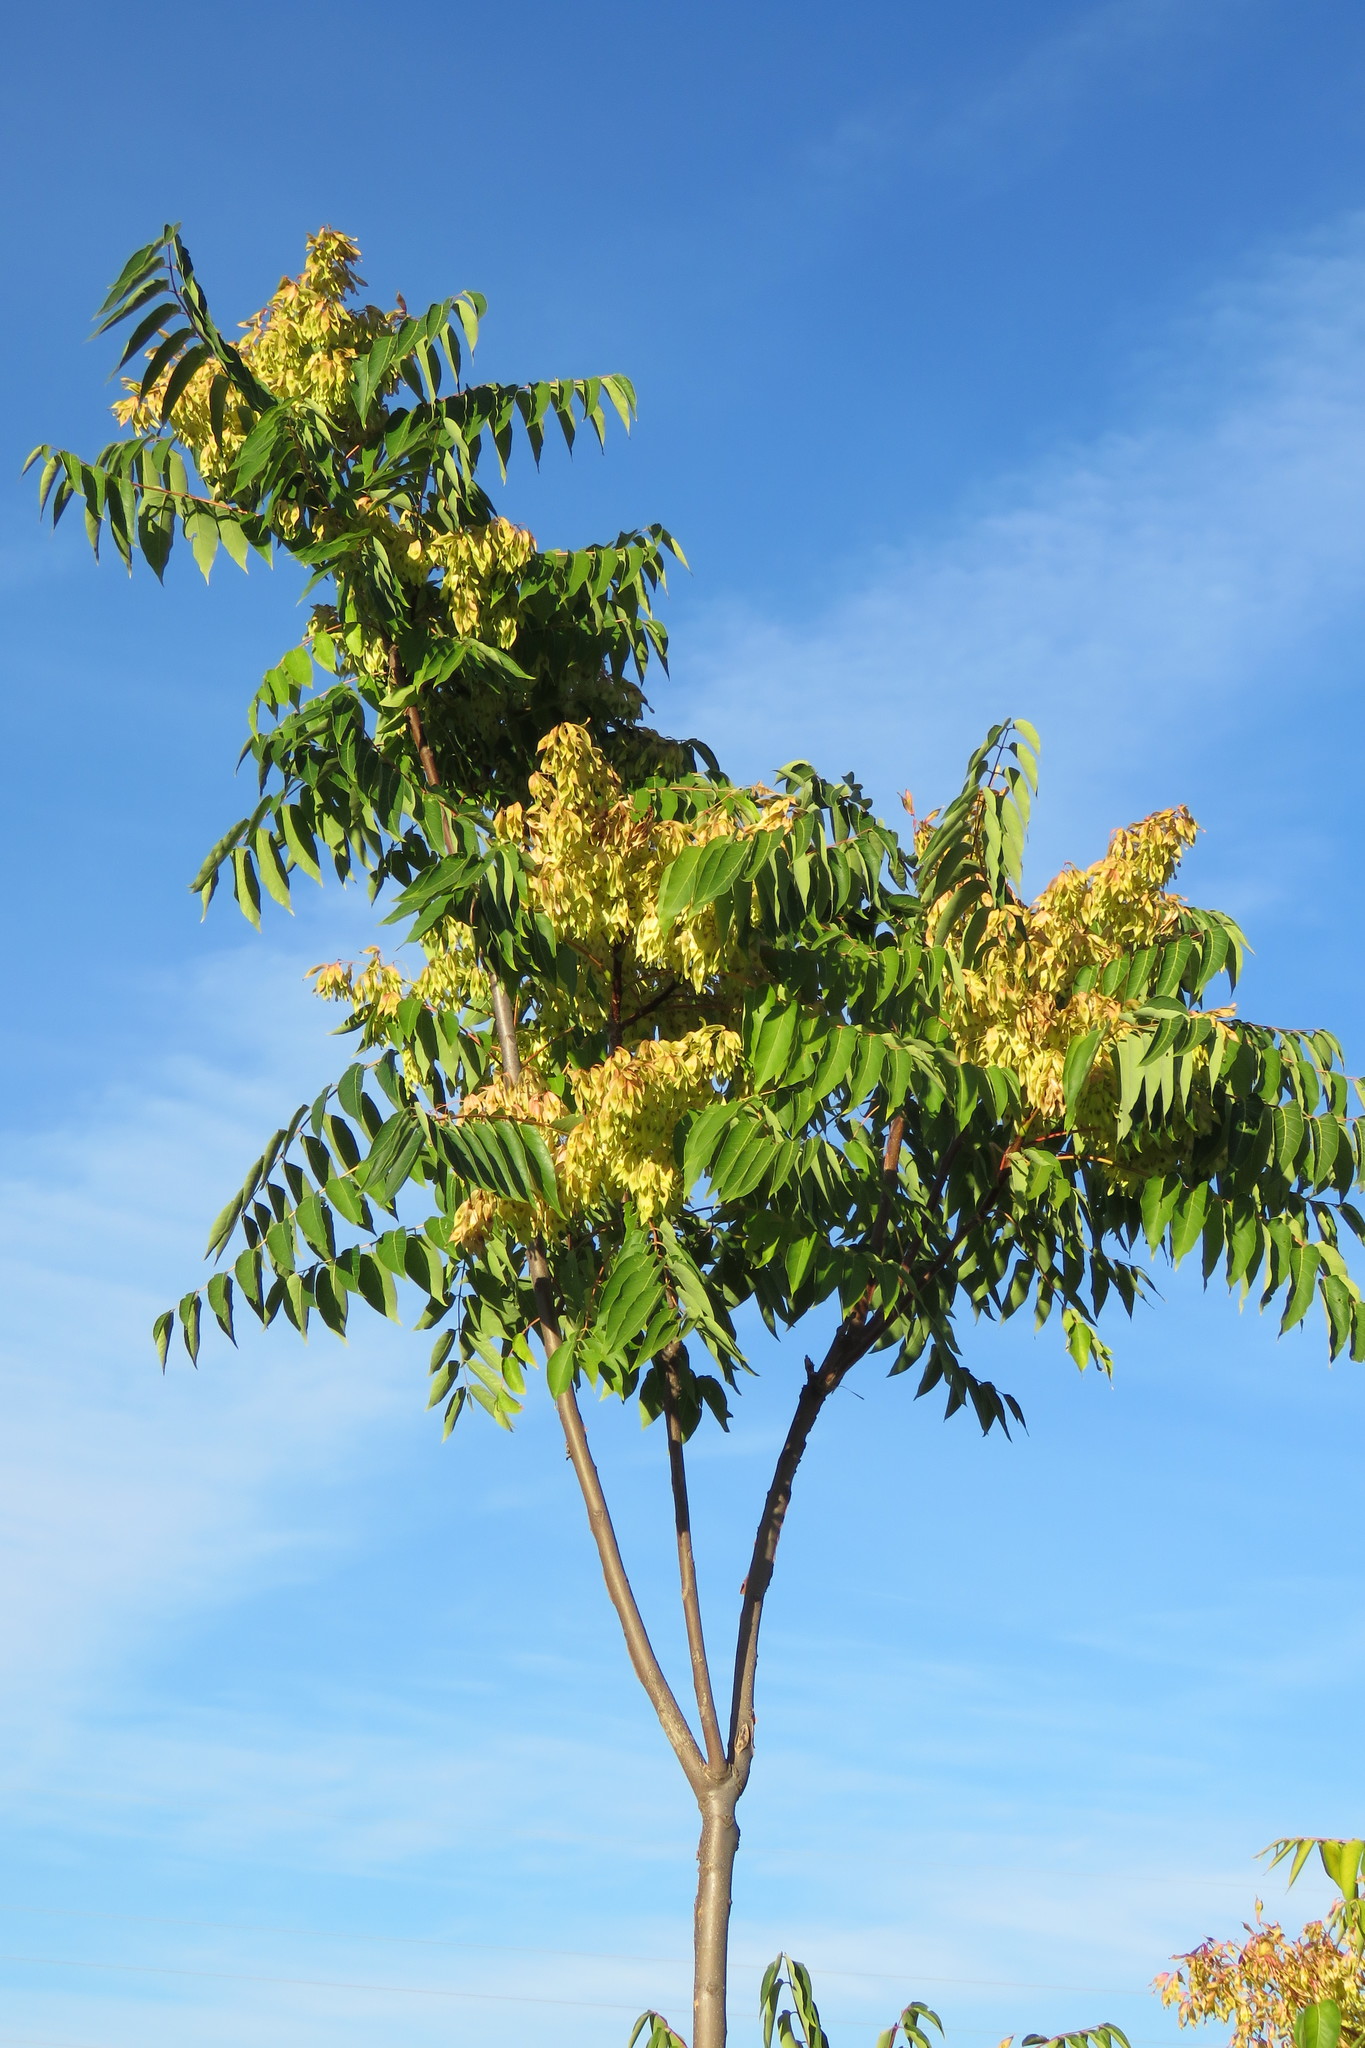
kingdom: Plantae
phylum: Tracheophyta
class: Magnoliopsida
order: Sapindales
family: Simaroubaceae
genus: Ailanthus
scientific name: Ailanthus altissima
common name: Tree-of-heaven
